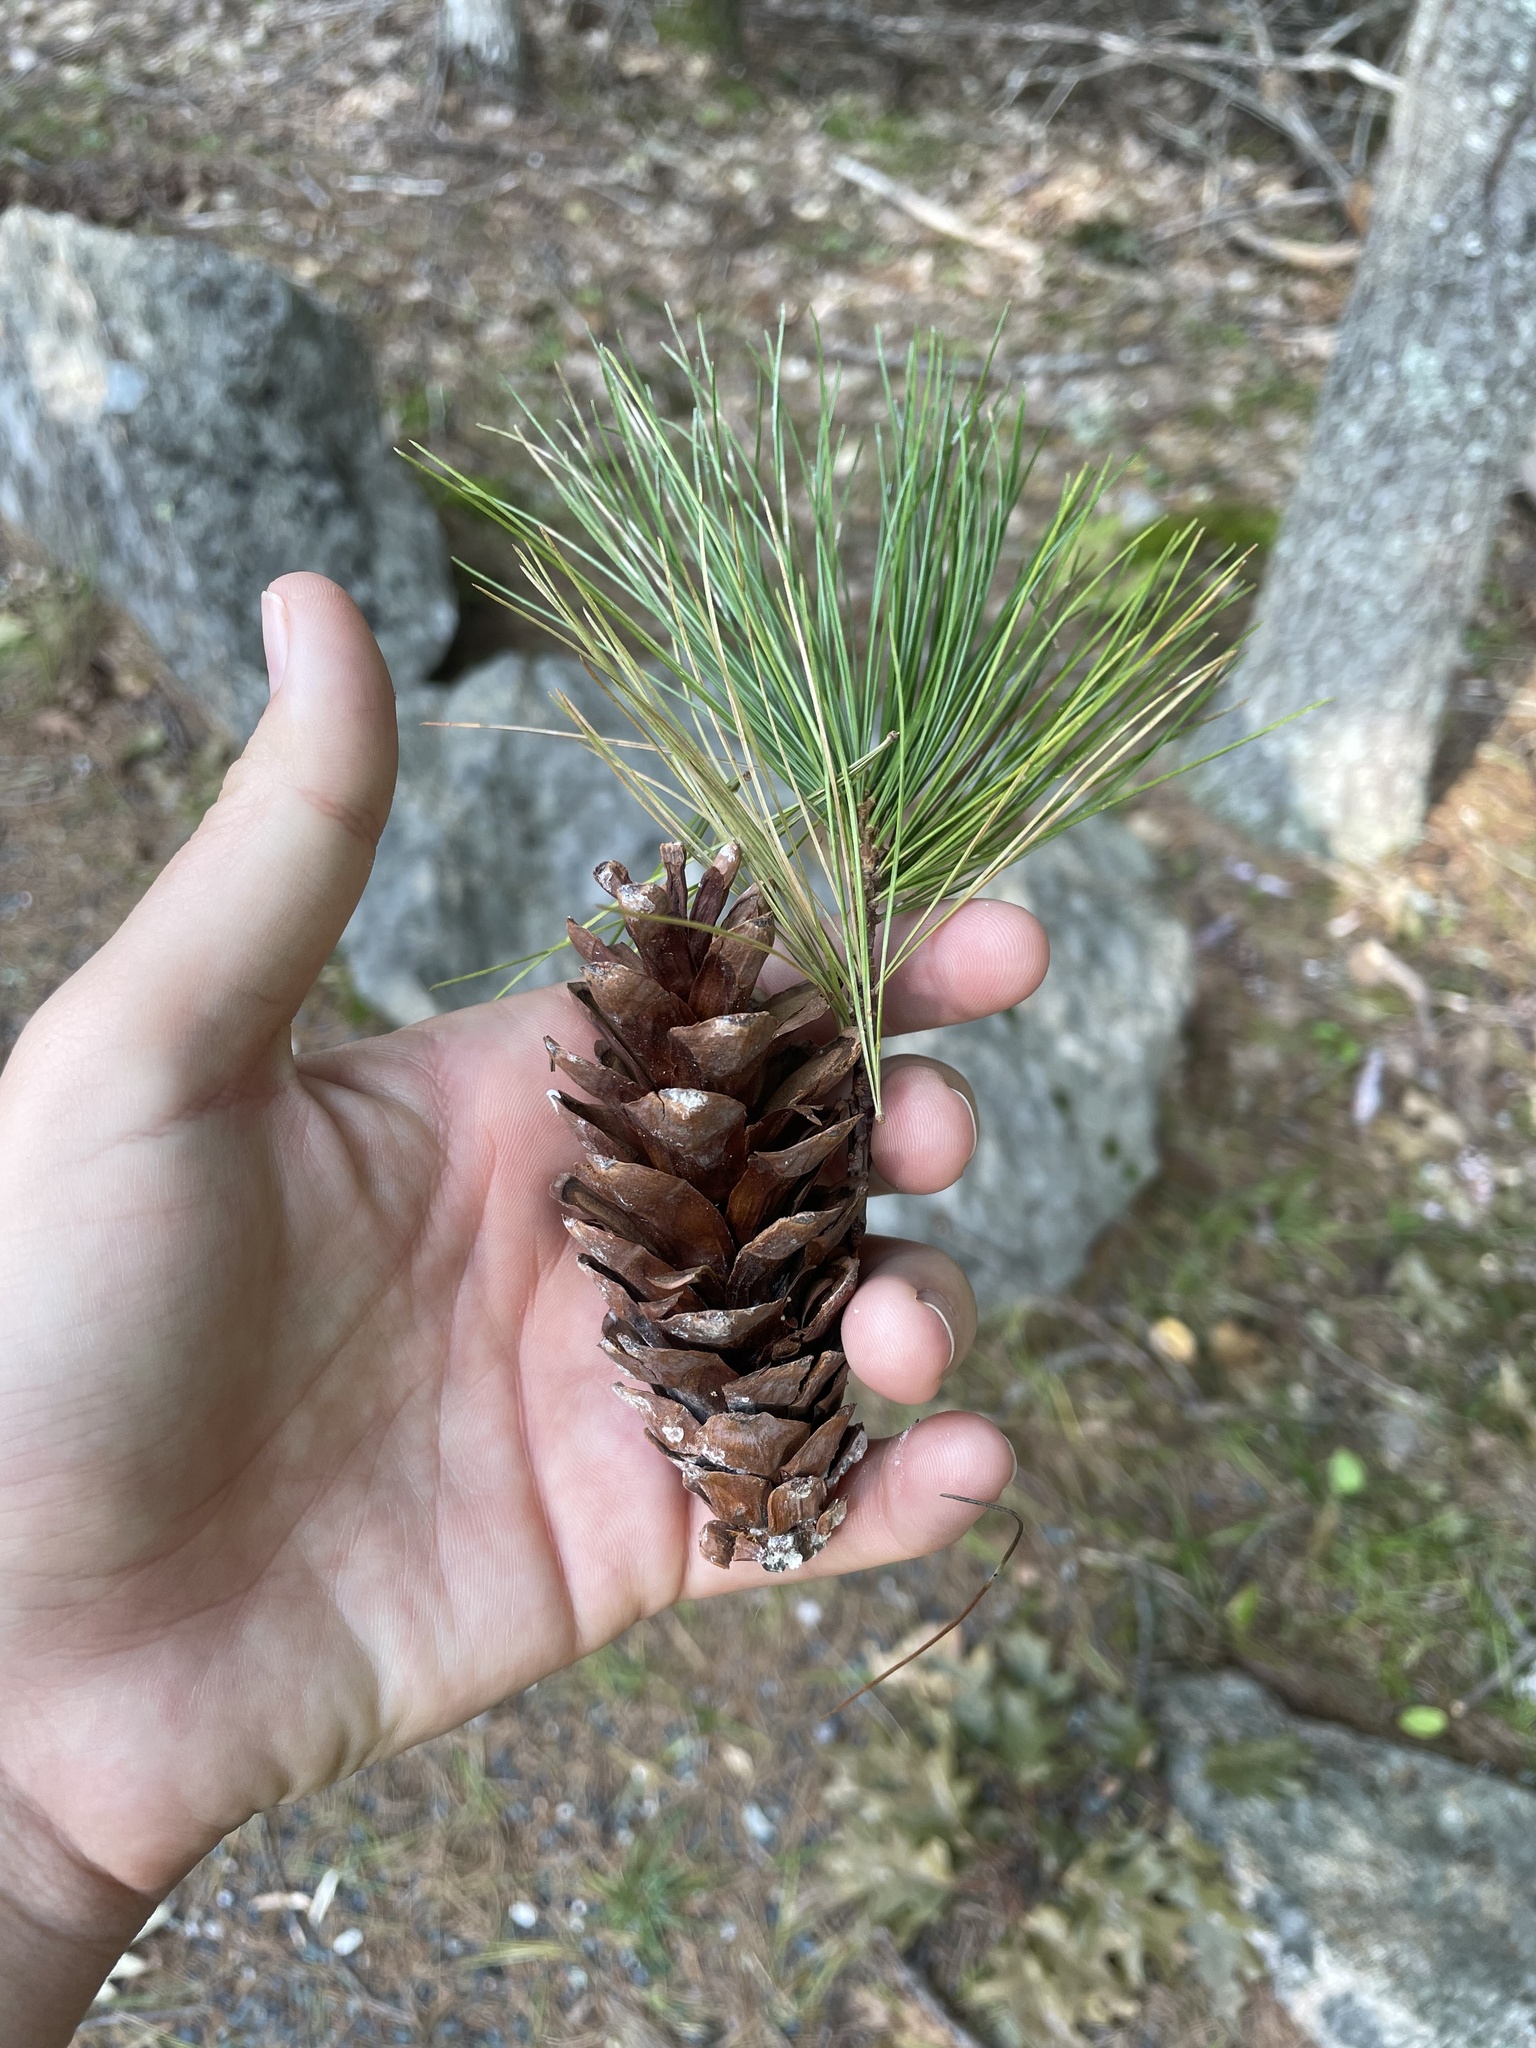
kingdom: Plantae
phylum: Tracheophyta
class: Pinopsida
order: Pinales
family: Pinaceae
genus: Pinus
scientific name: Pinus strobus
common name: Weymouth pine
